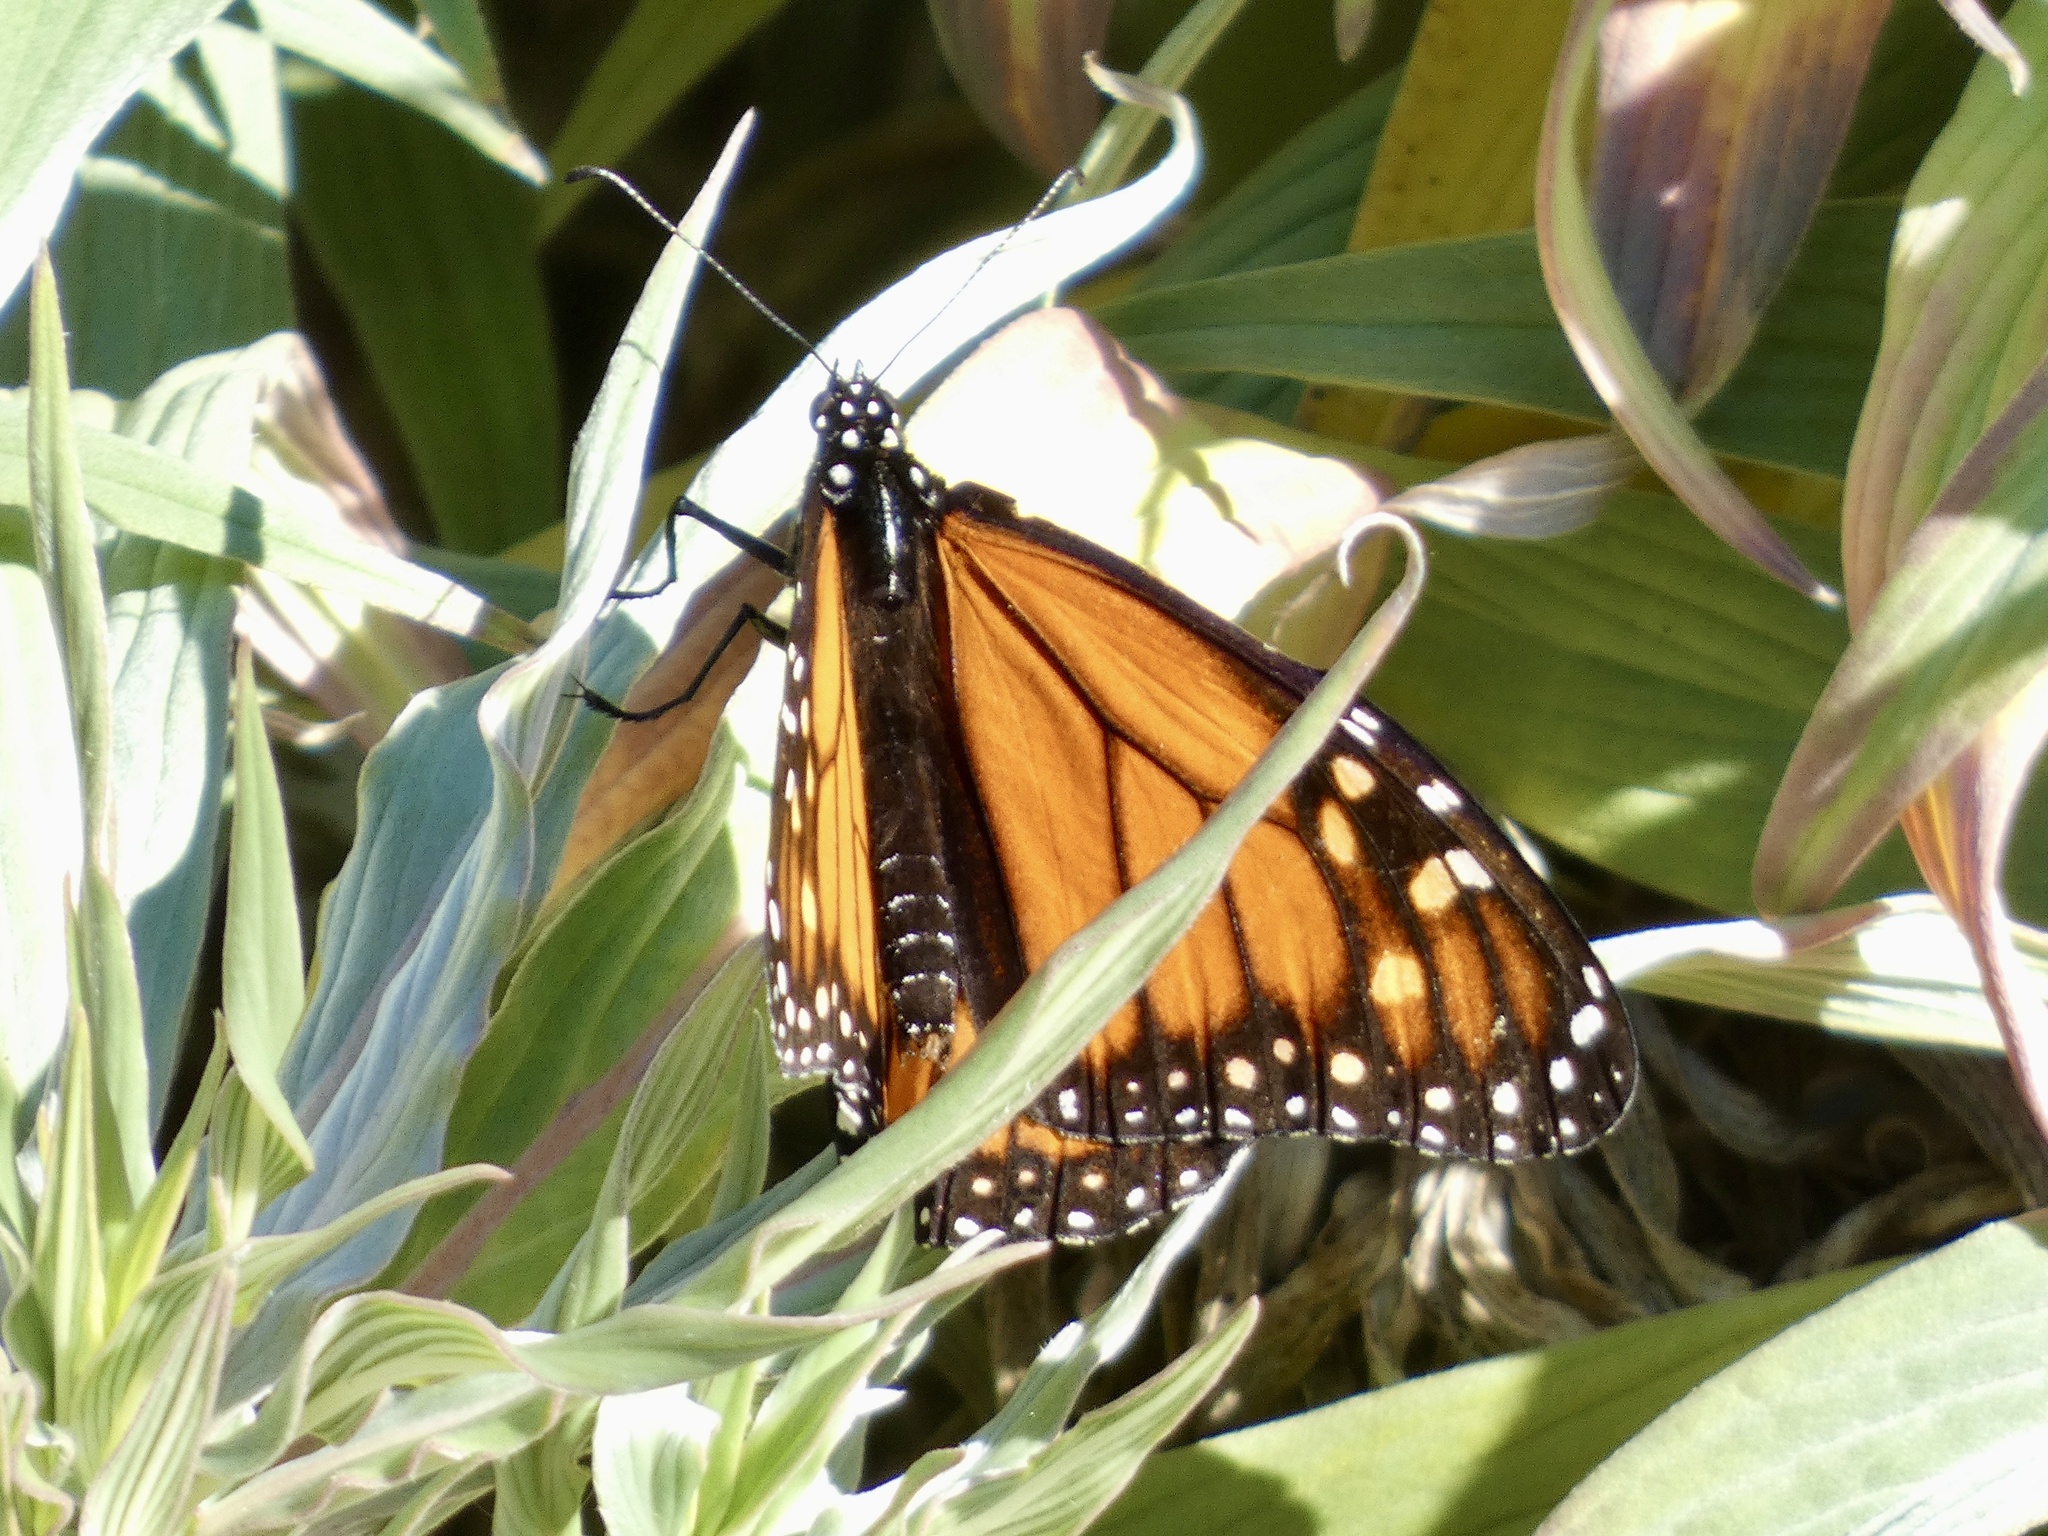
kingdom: Animalia
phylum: Arthropoda
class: Insecta
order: Lepidoptera
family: Nymphalidae
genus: Danaus
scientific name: Danaus plexippus
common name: Monarch
